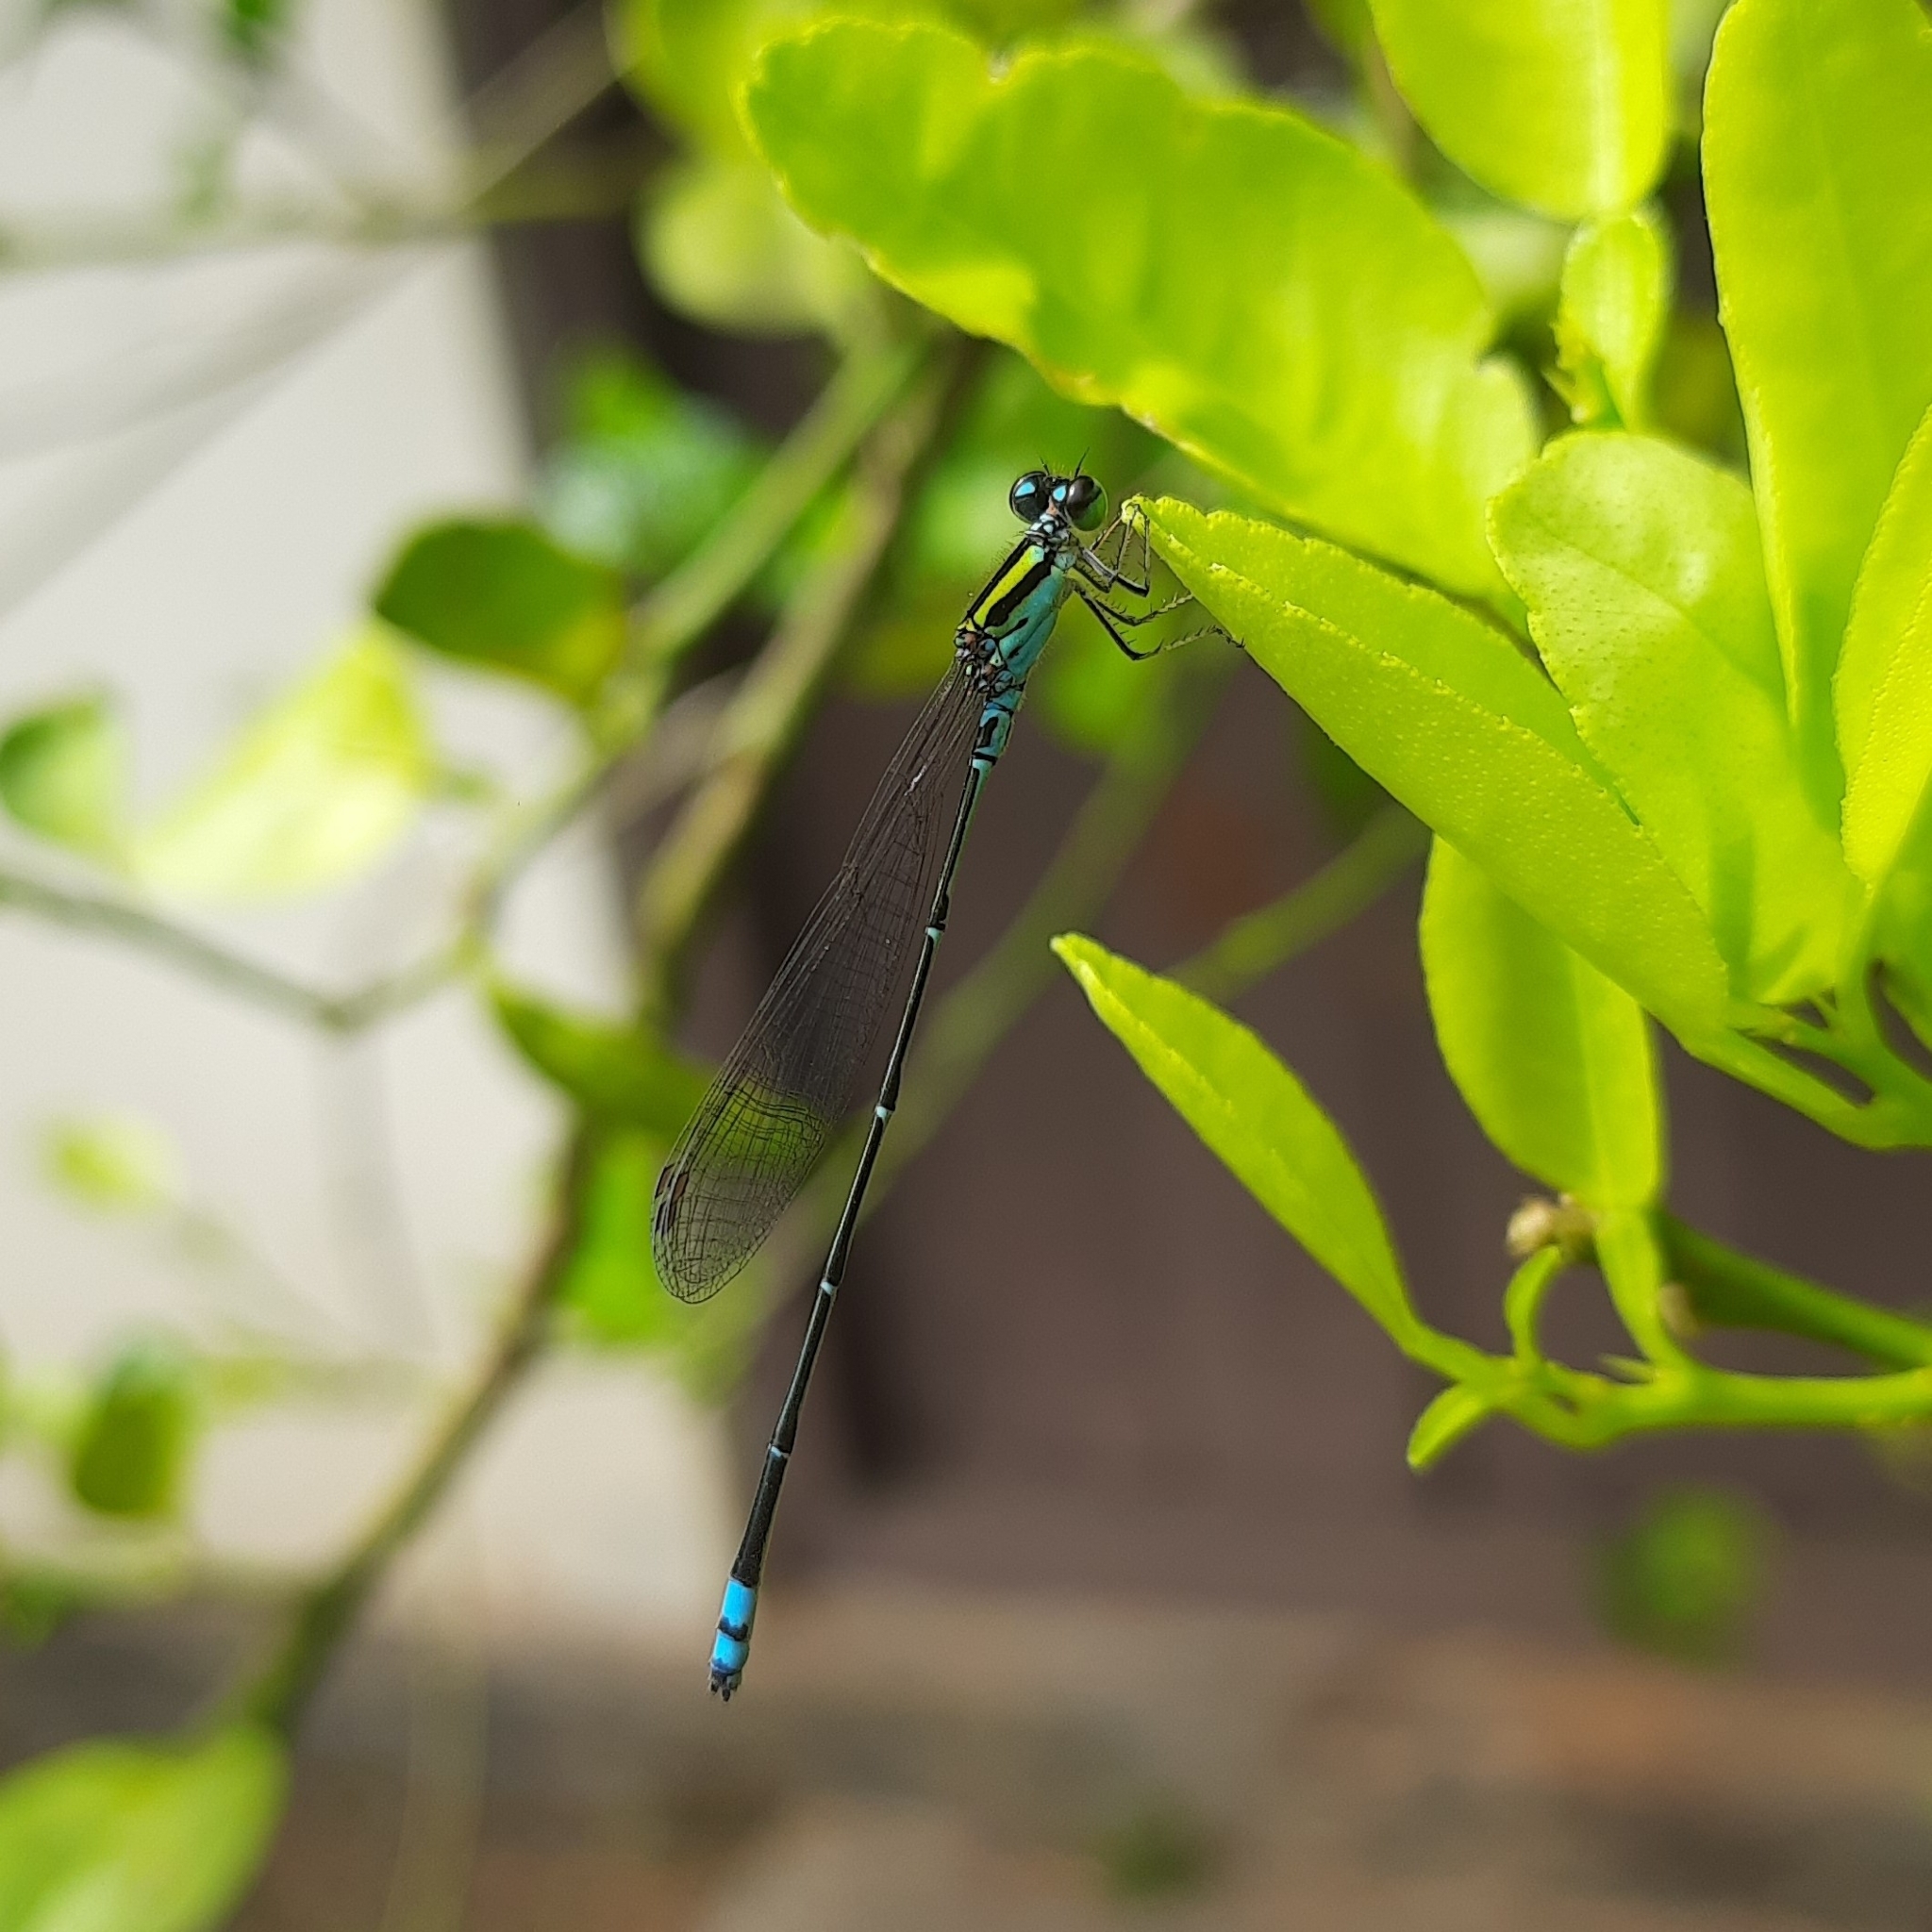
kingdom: Animalia
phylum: Arthropoda
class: Insecta
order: Odonata
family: Coenagrionidae
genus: Pseudagrion
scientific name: Pseudagrion indicum
